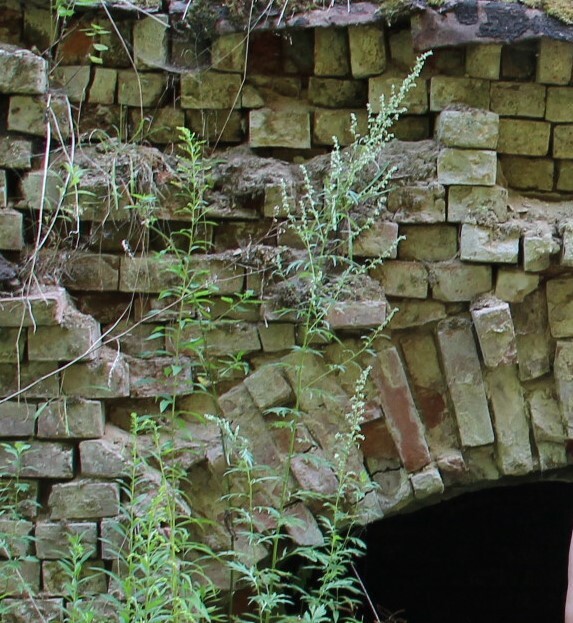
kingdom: Plantae
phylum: Tracheophyta
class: Magnoliopsida
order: Asterales
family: Asteraceae
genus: Artemisia
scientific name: Artemisia vulgaris
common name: Mugwort
